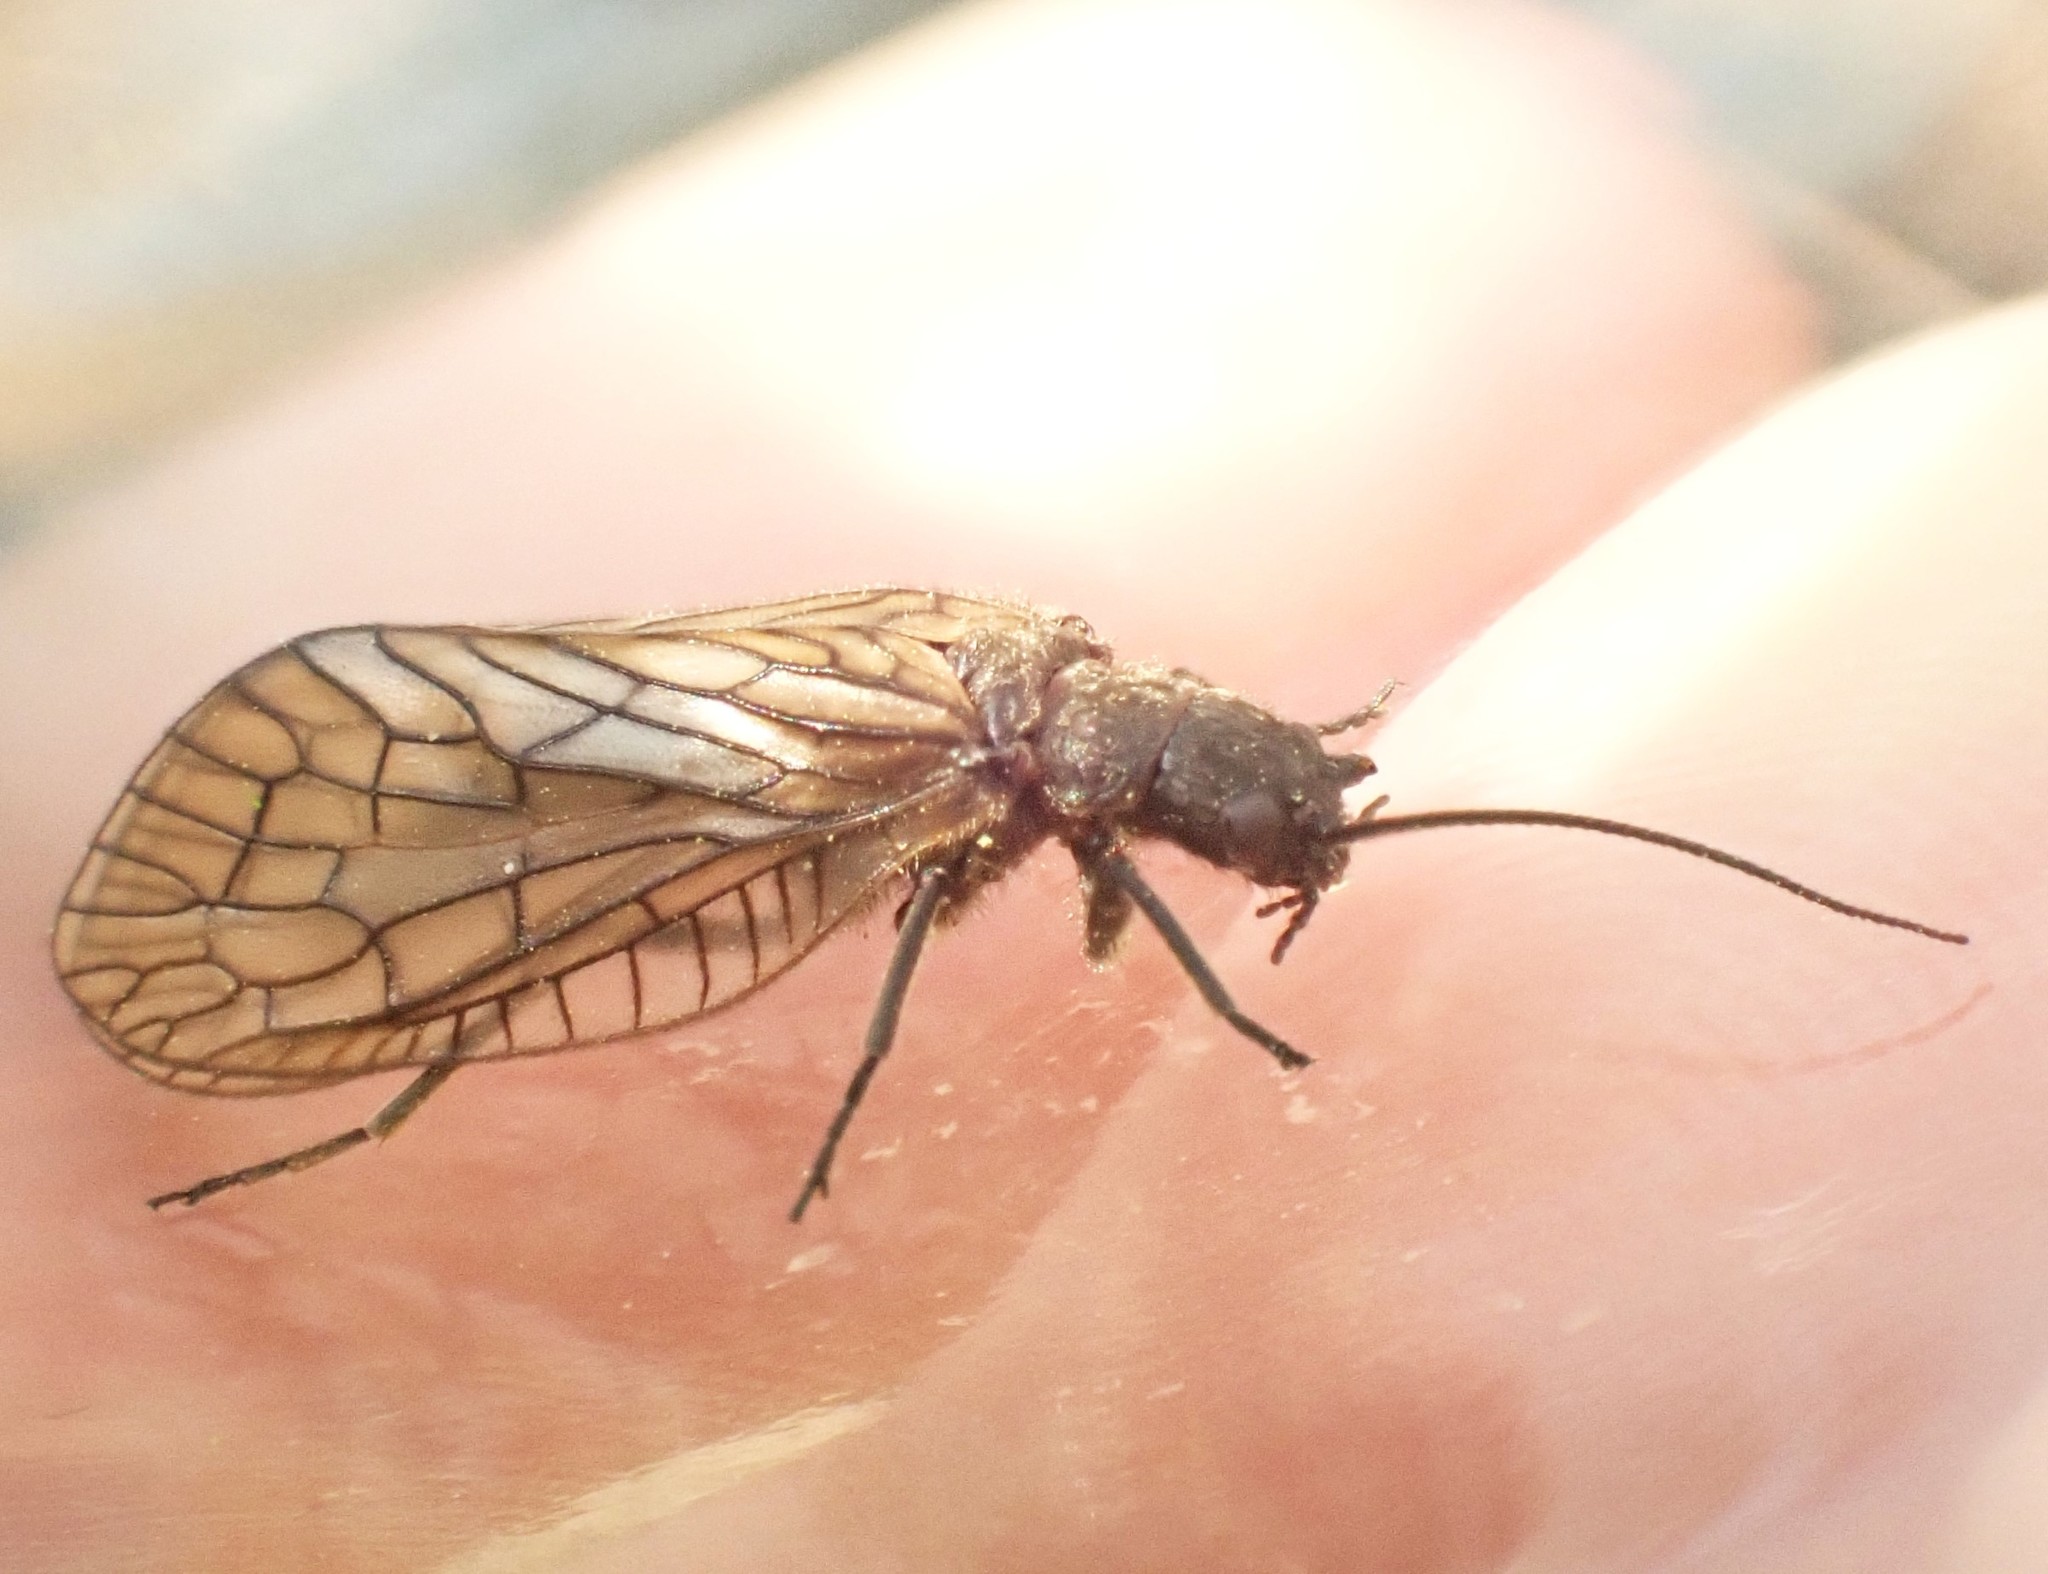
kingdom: Animalia
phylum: Arthropoda
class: Insecta
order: Megaloptera
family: Sialidae
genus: Sialis
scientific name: Sialis
